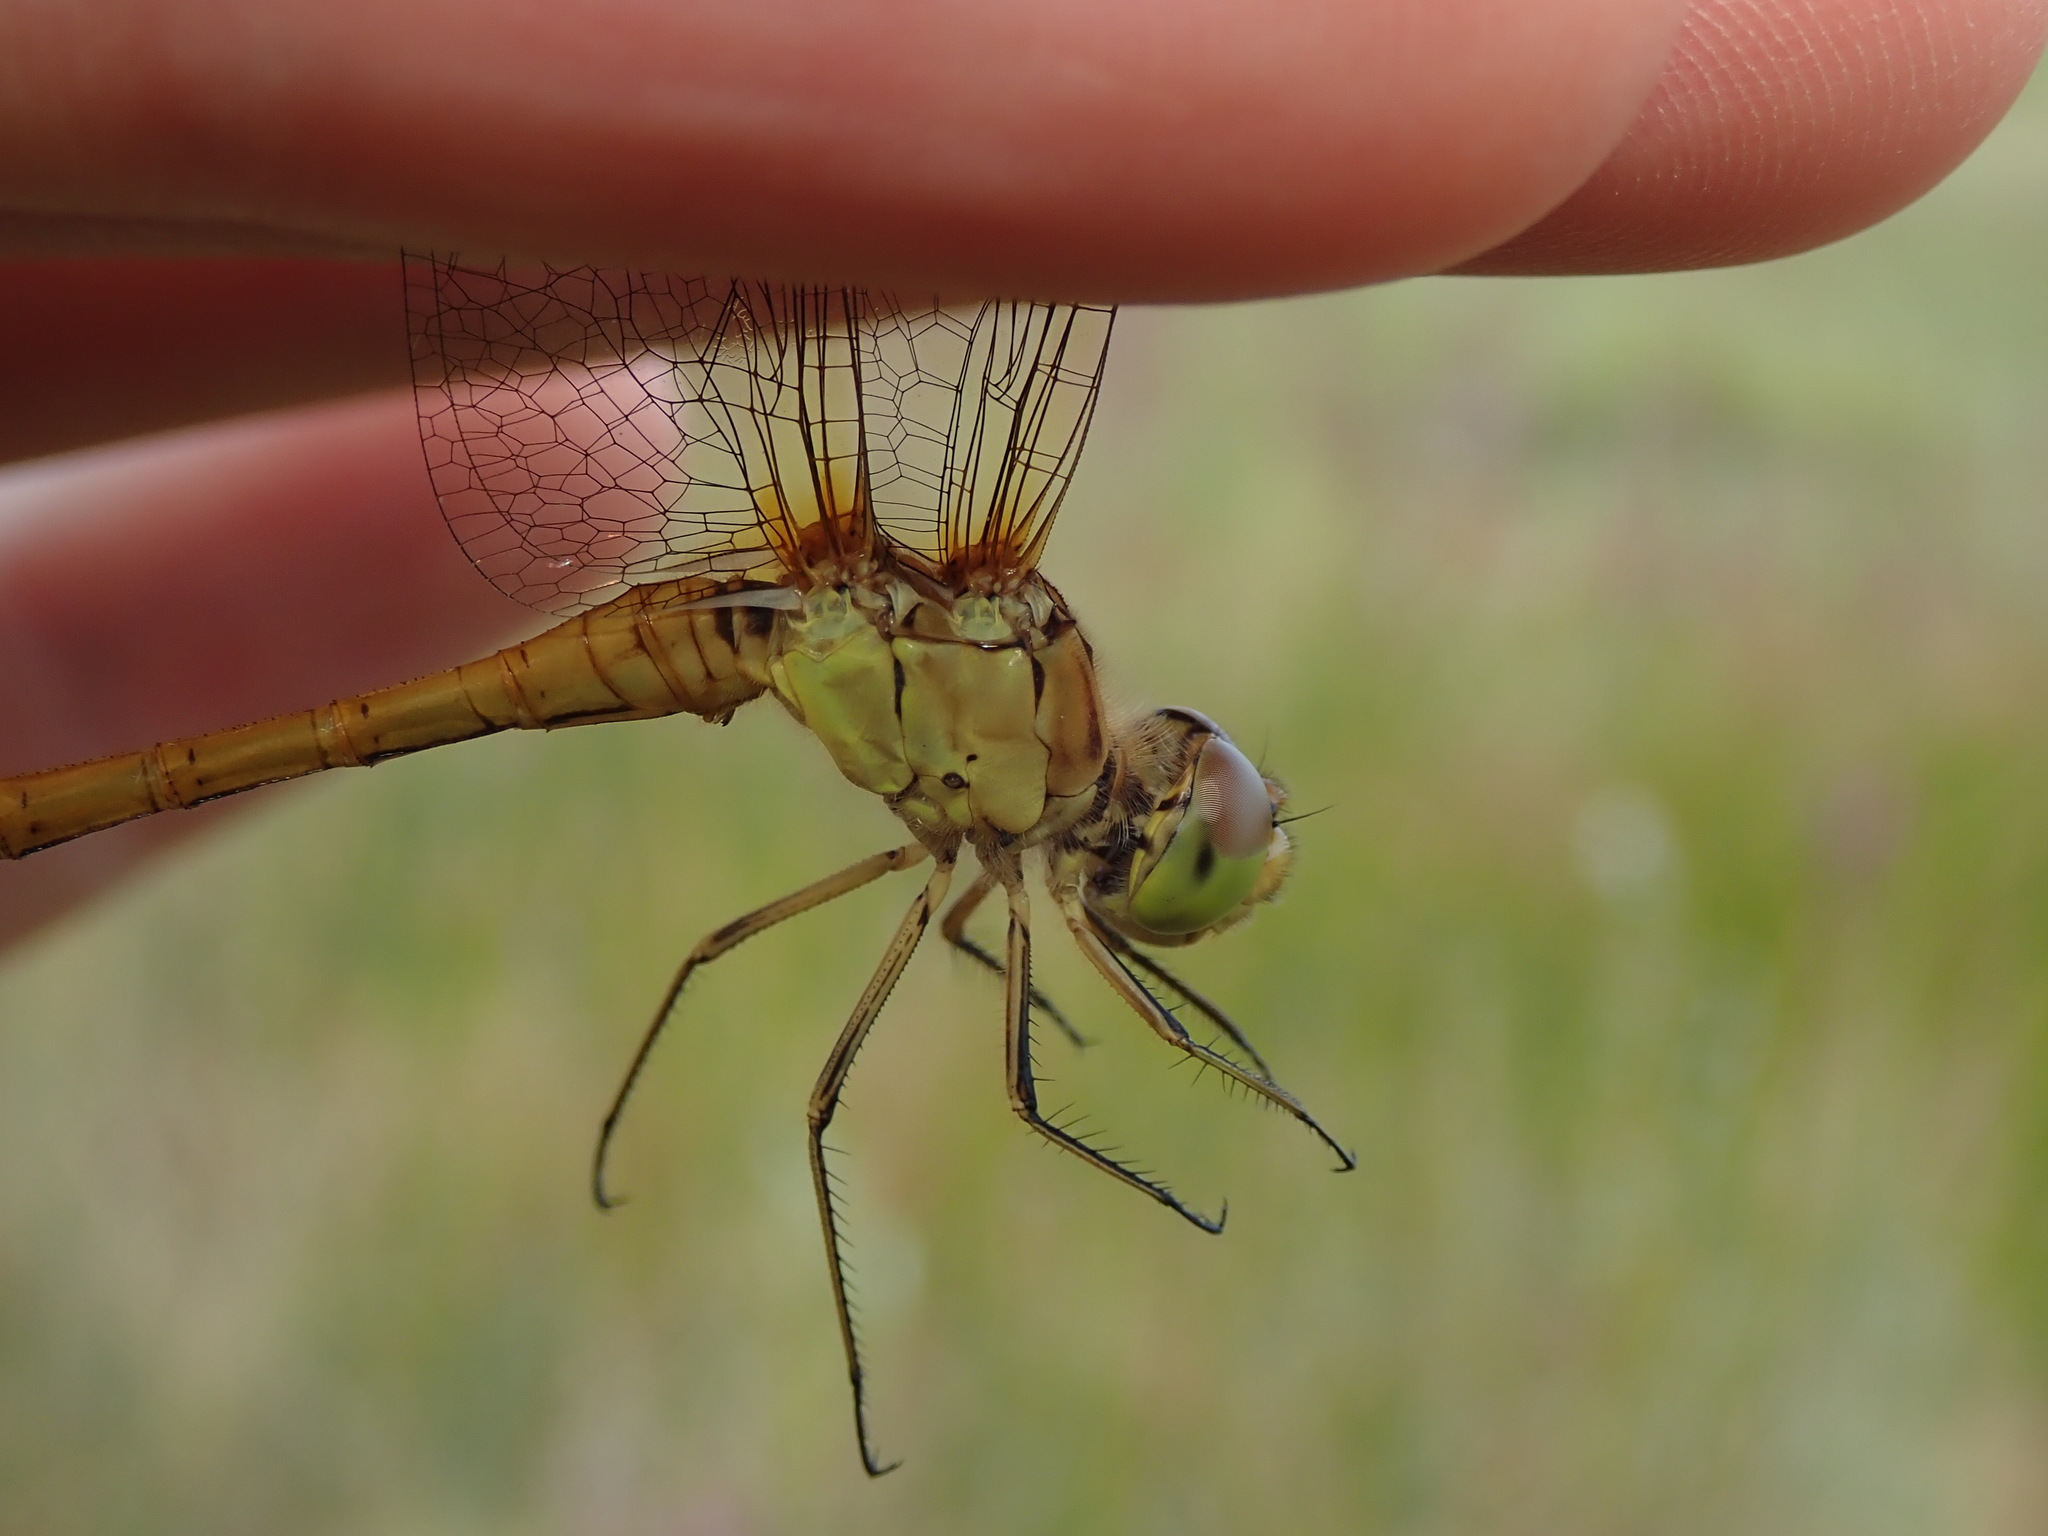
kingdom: Animalia
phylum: Arthropoda
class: Insecta
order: Odonata
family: Libellulidae
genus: Sympetrum
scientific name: Sympetrum meridionale
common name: Southern darter
